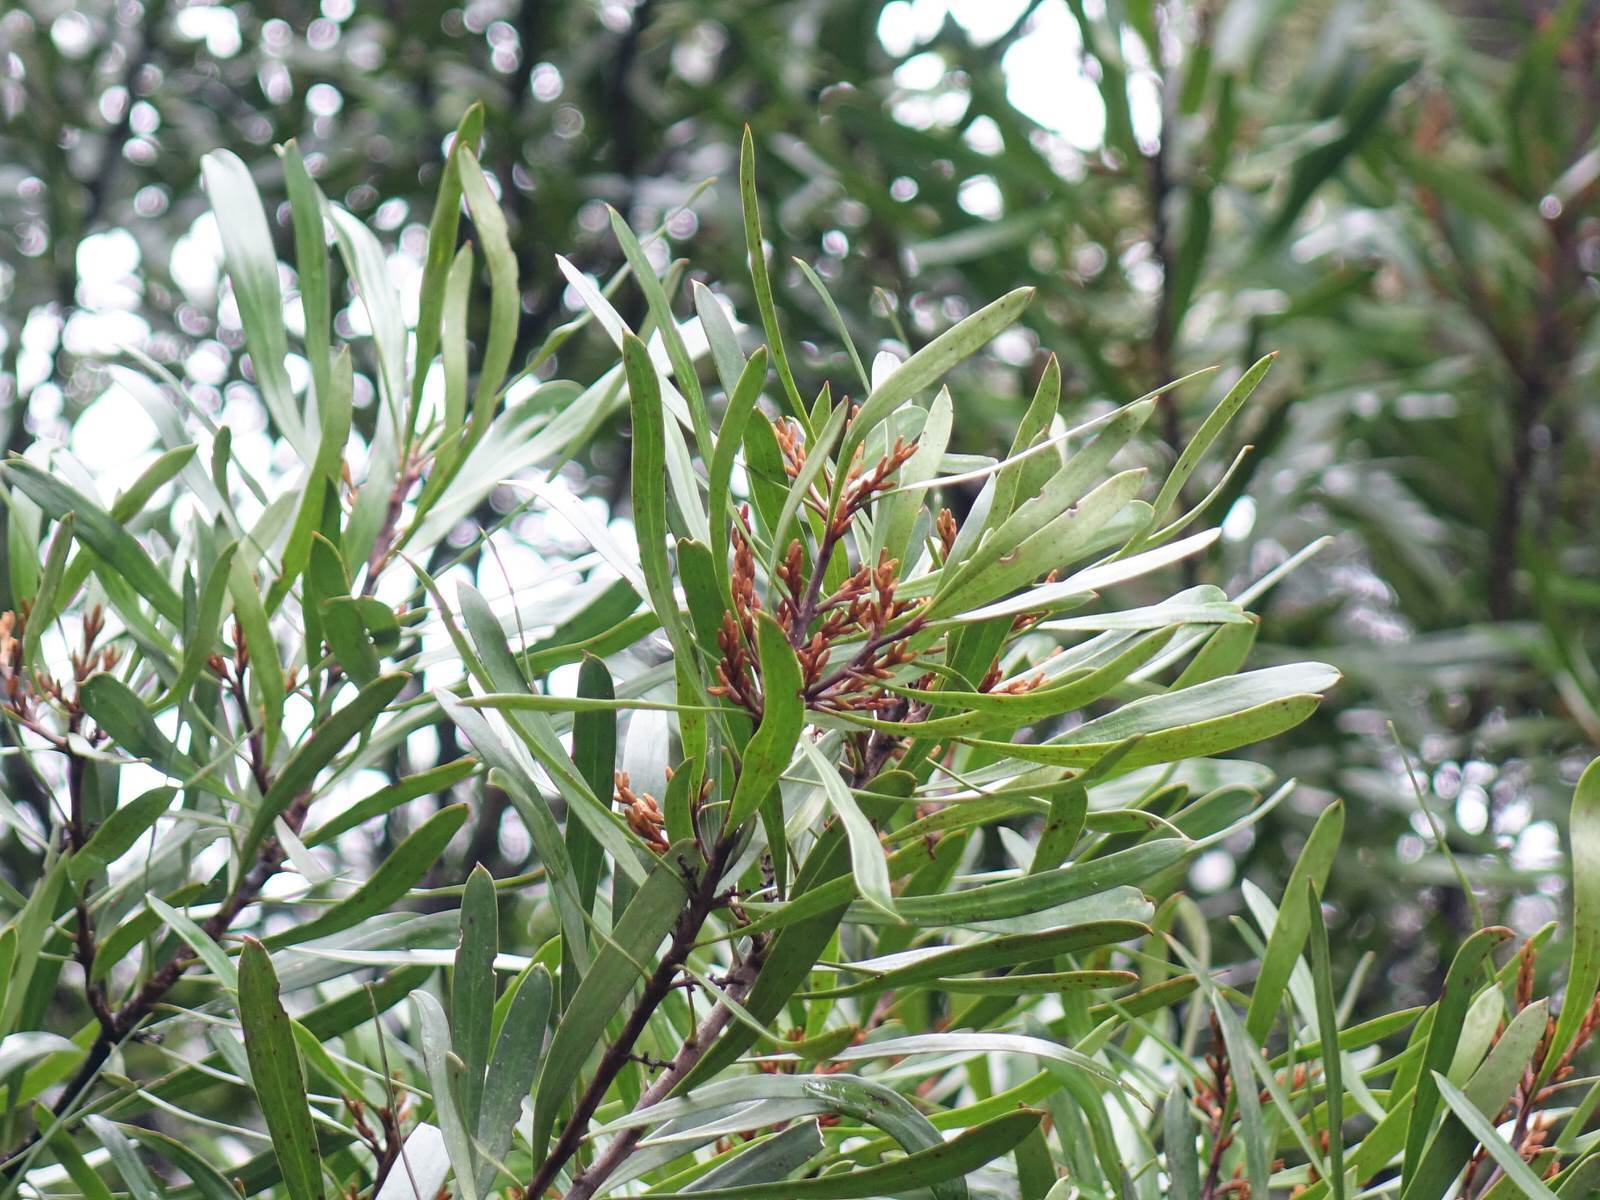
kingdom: Plantae
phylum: Tracheophyta
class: Magnoliopsida
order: Proteales
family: Proteaceae
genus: Toronia
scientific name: Toronia toru
